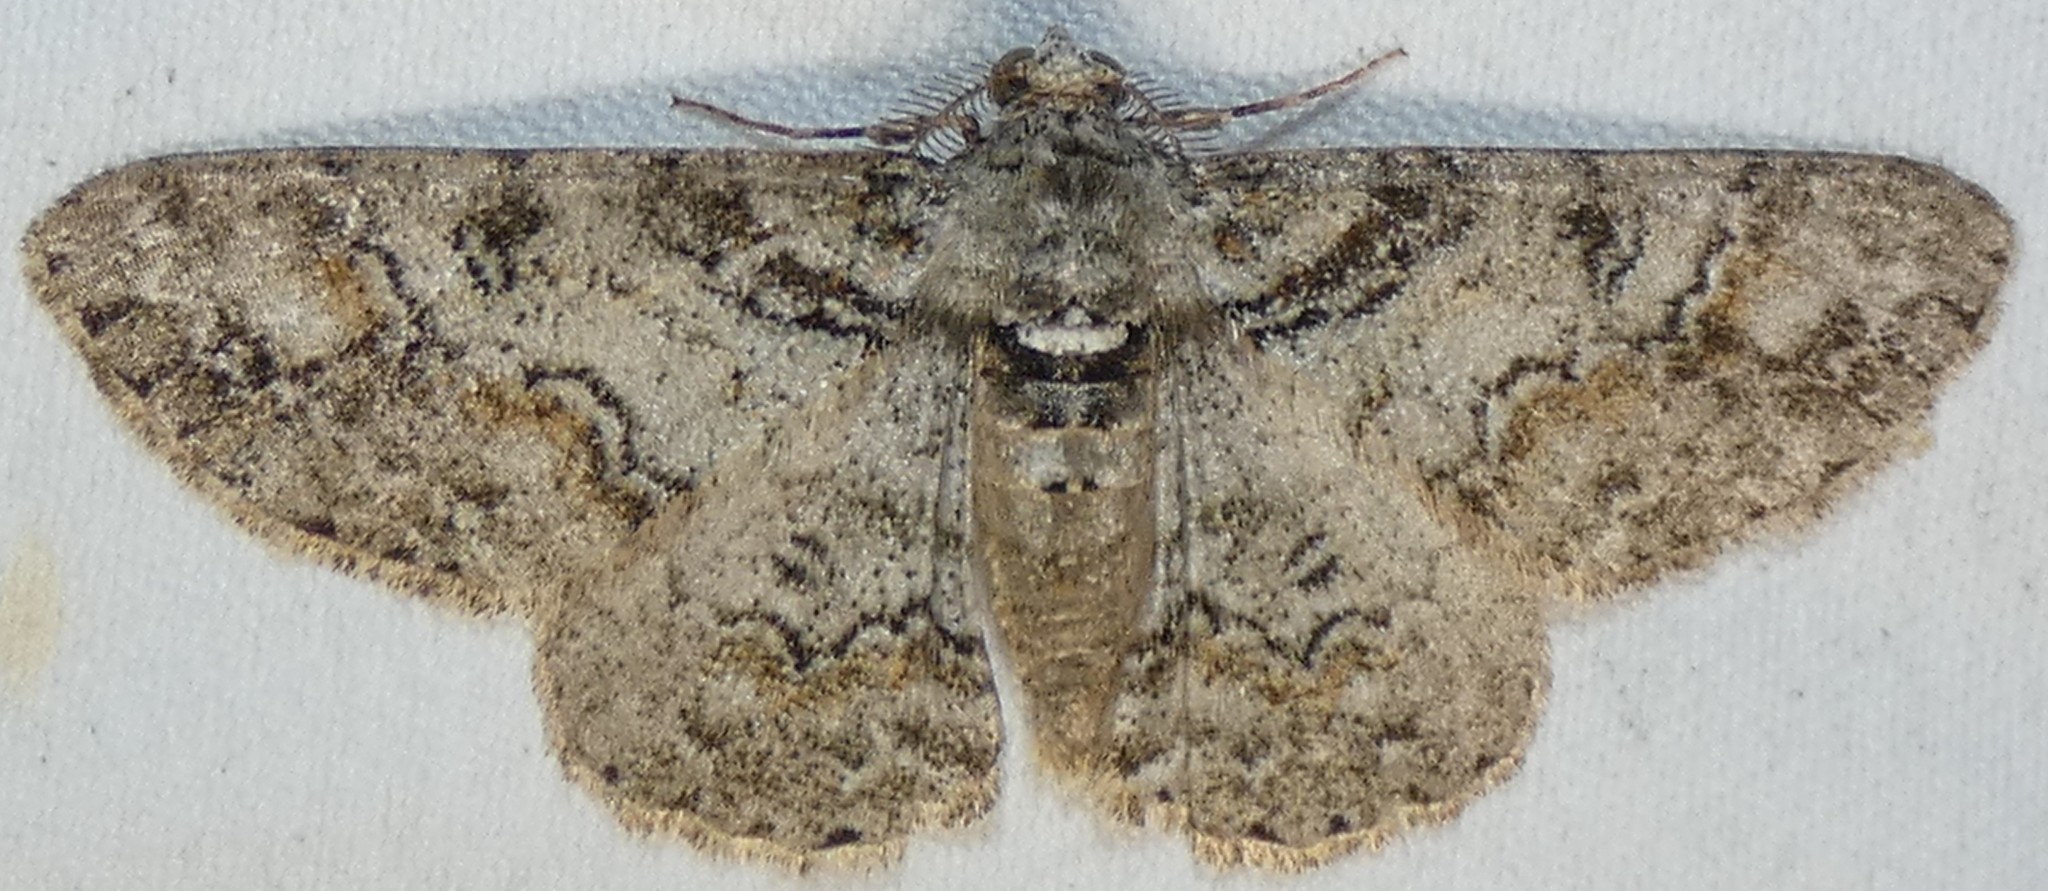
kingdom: Animalia
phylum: Arthropoda
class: Insecta
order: Lepidoptera
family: Geometridae
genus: Cleora
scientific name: Cleora sublunaria
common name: Double-lined gray
